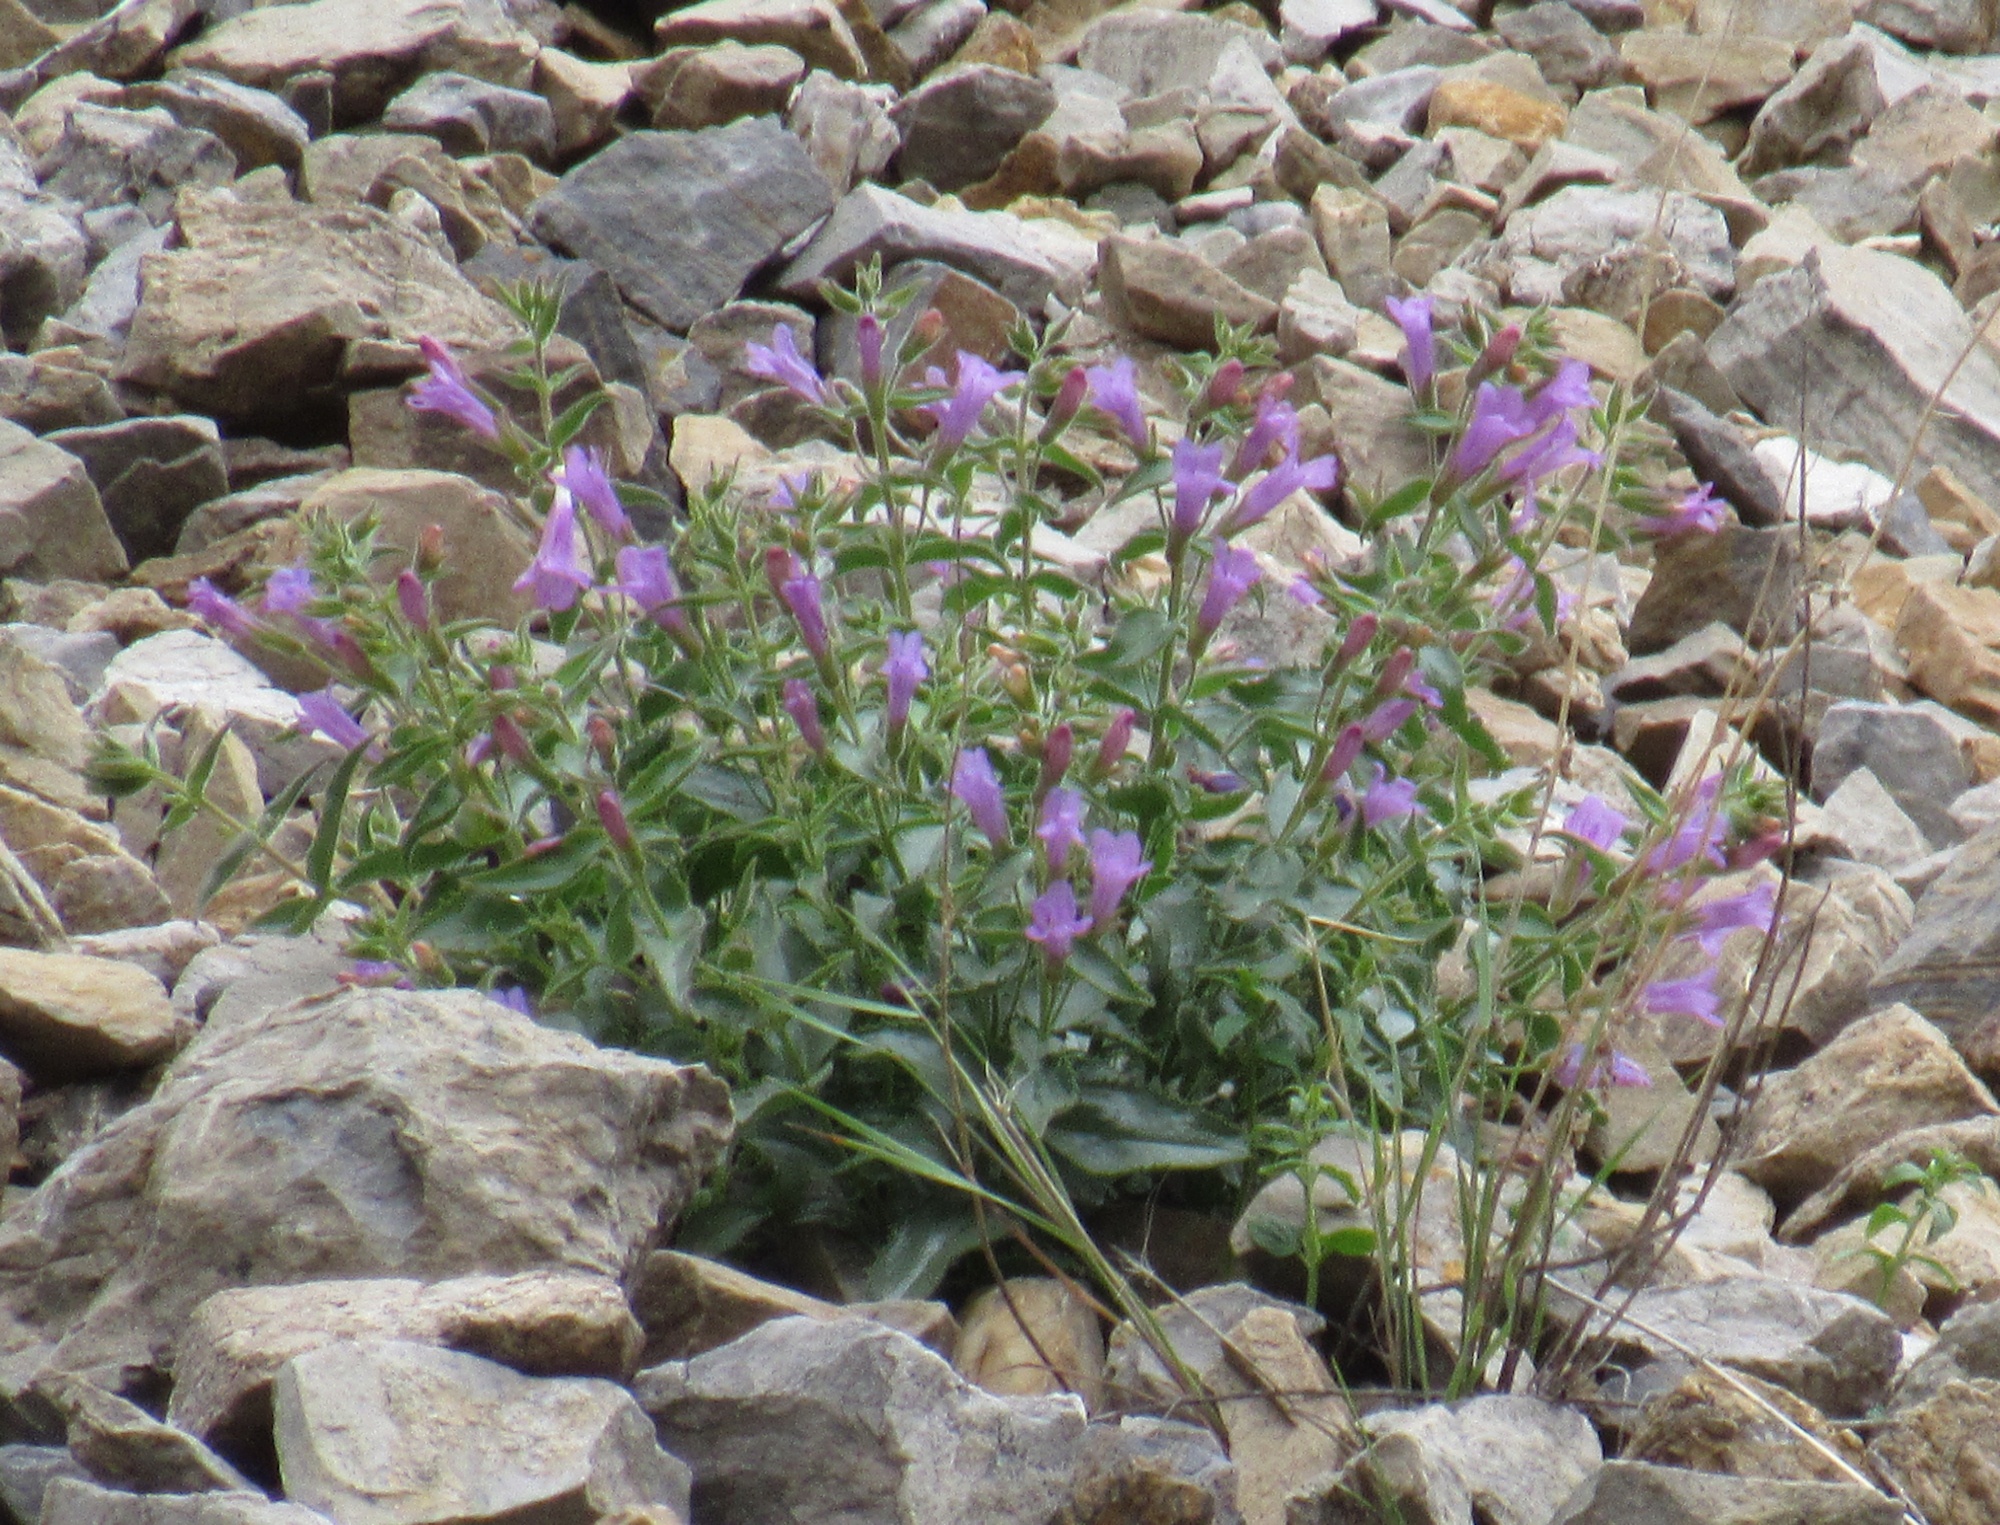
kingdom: Plantae
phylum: Tracheophyta
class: Magnoliopsida
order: Lamiales
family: Plantaginaceae
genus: Penstemon
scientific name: Penstemon montanus
